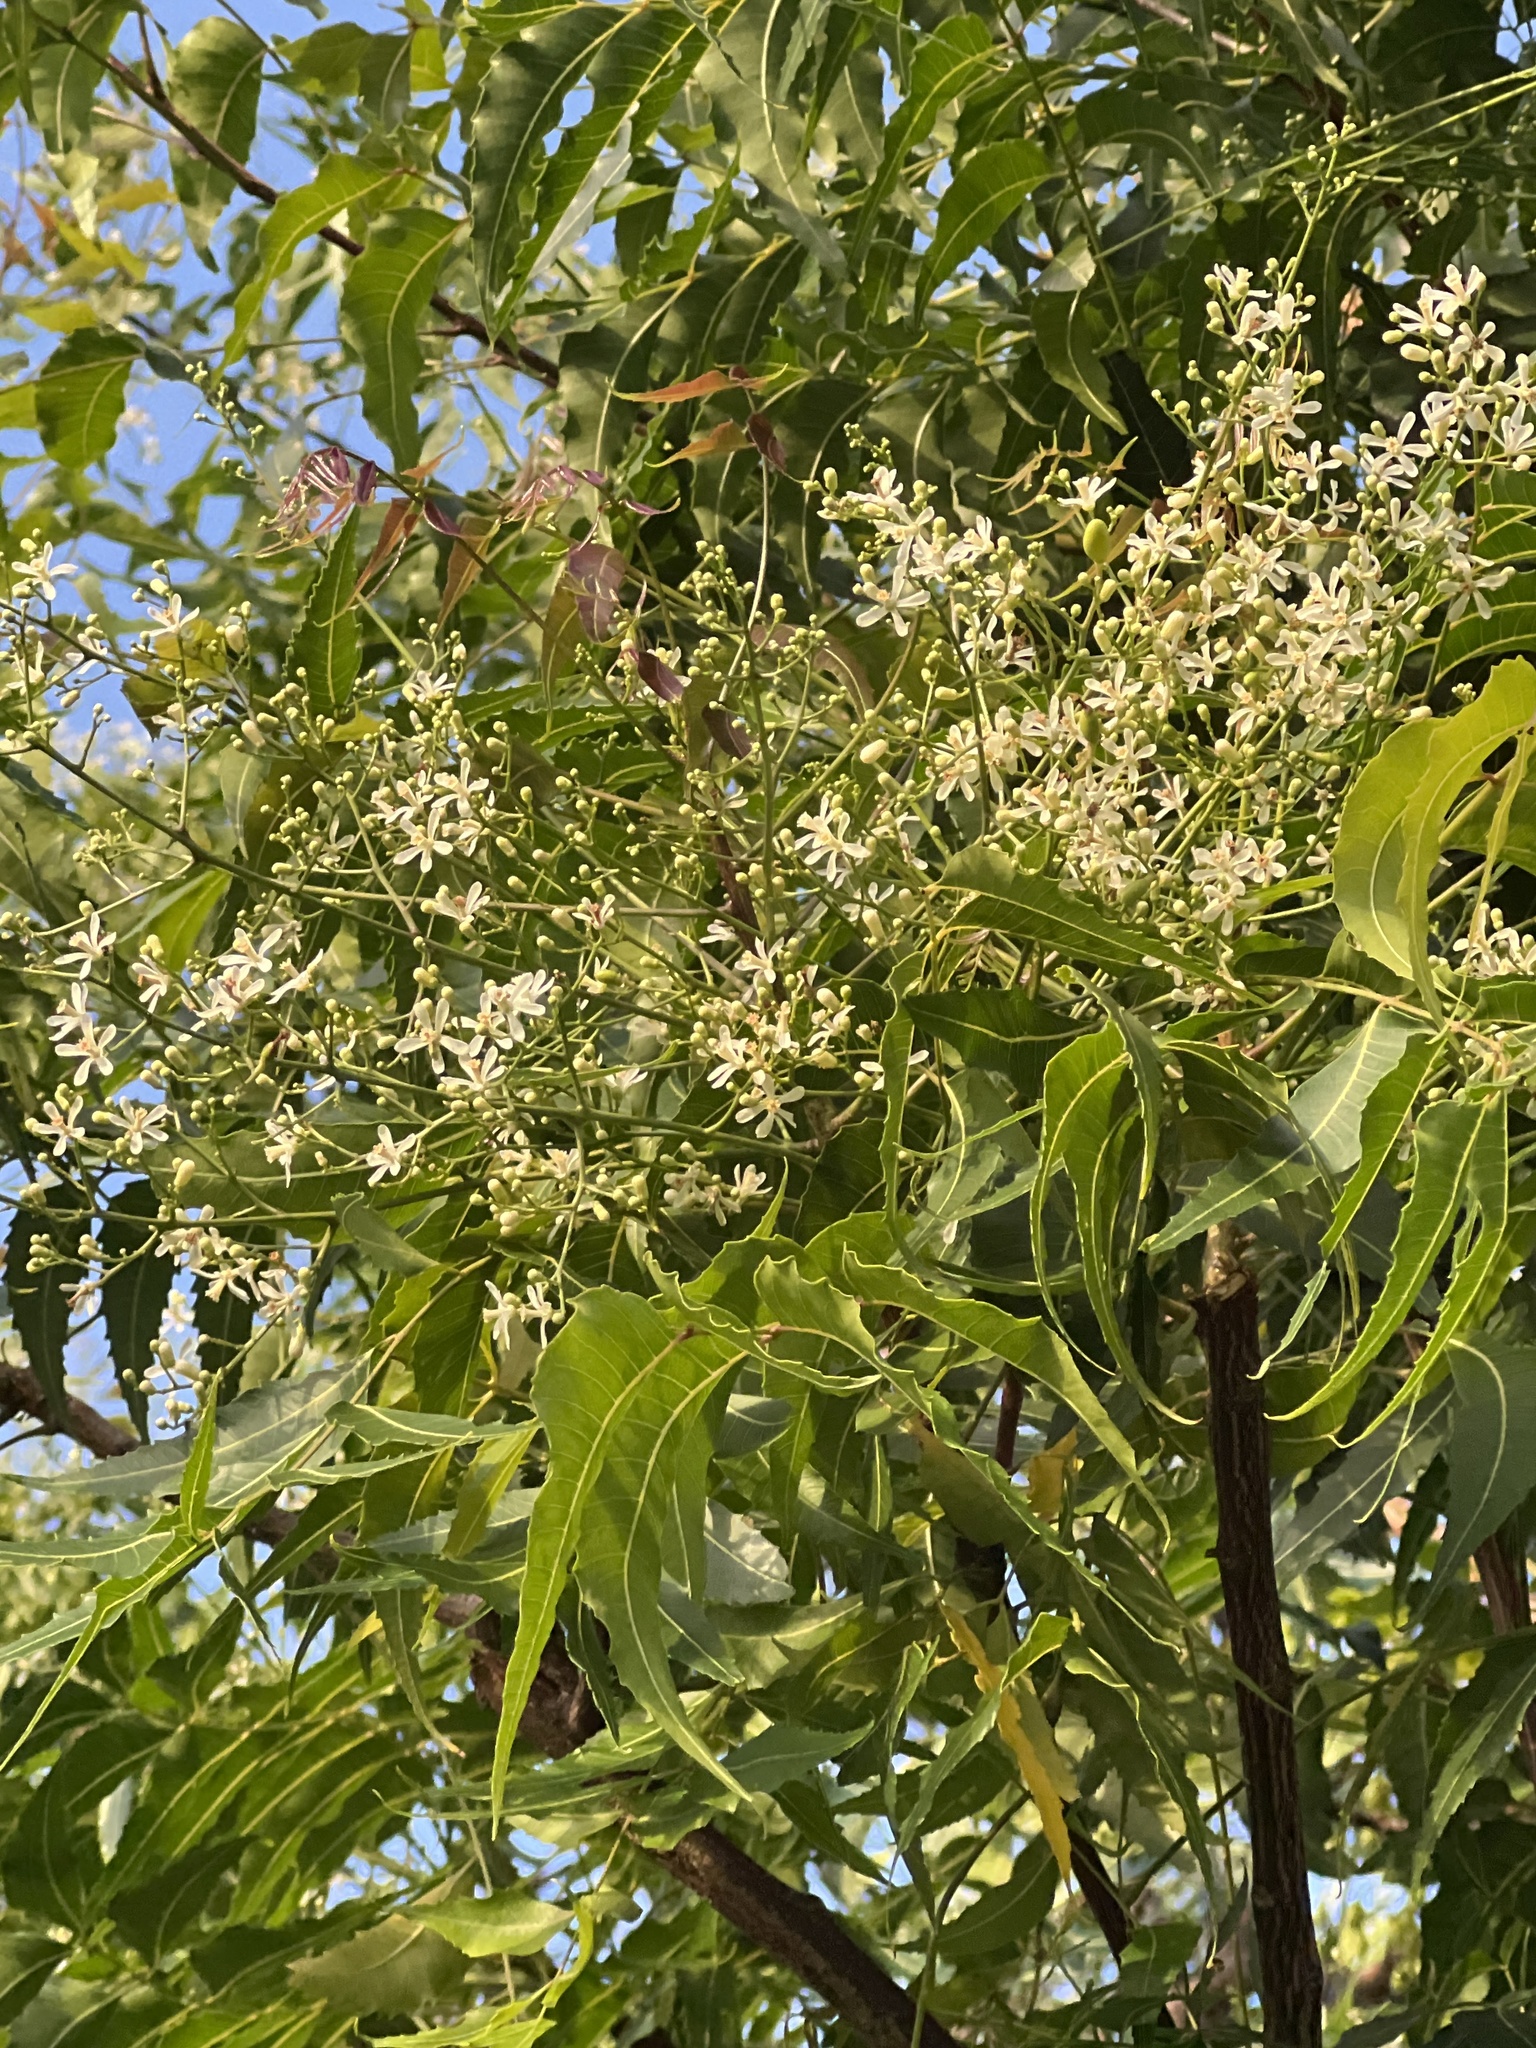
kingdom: Plantae
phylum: Tracheophyta
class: Magnoliopsida
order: Sapindales
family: Meliaceae
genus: Azadirachta
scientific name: Azadirachta indica
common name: Neem
